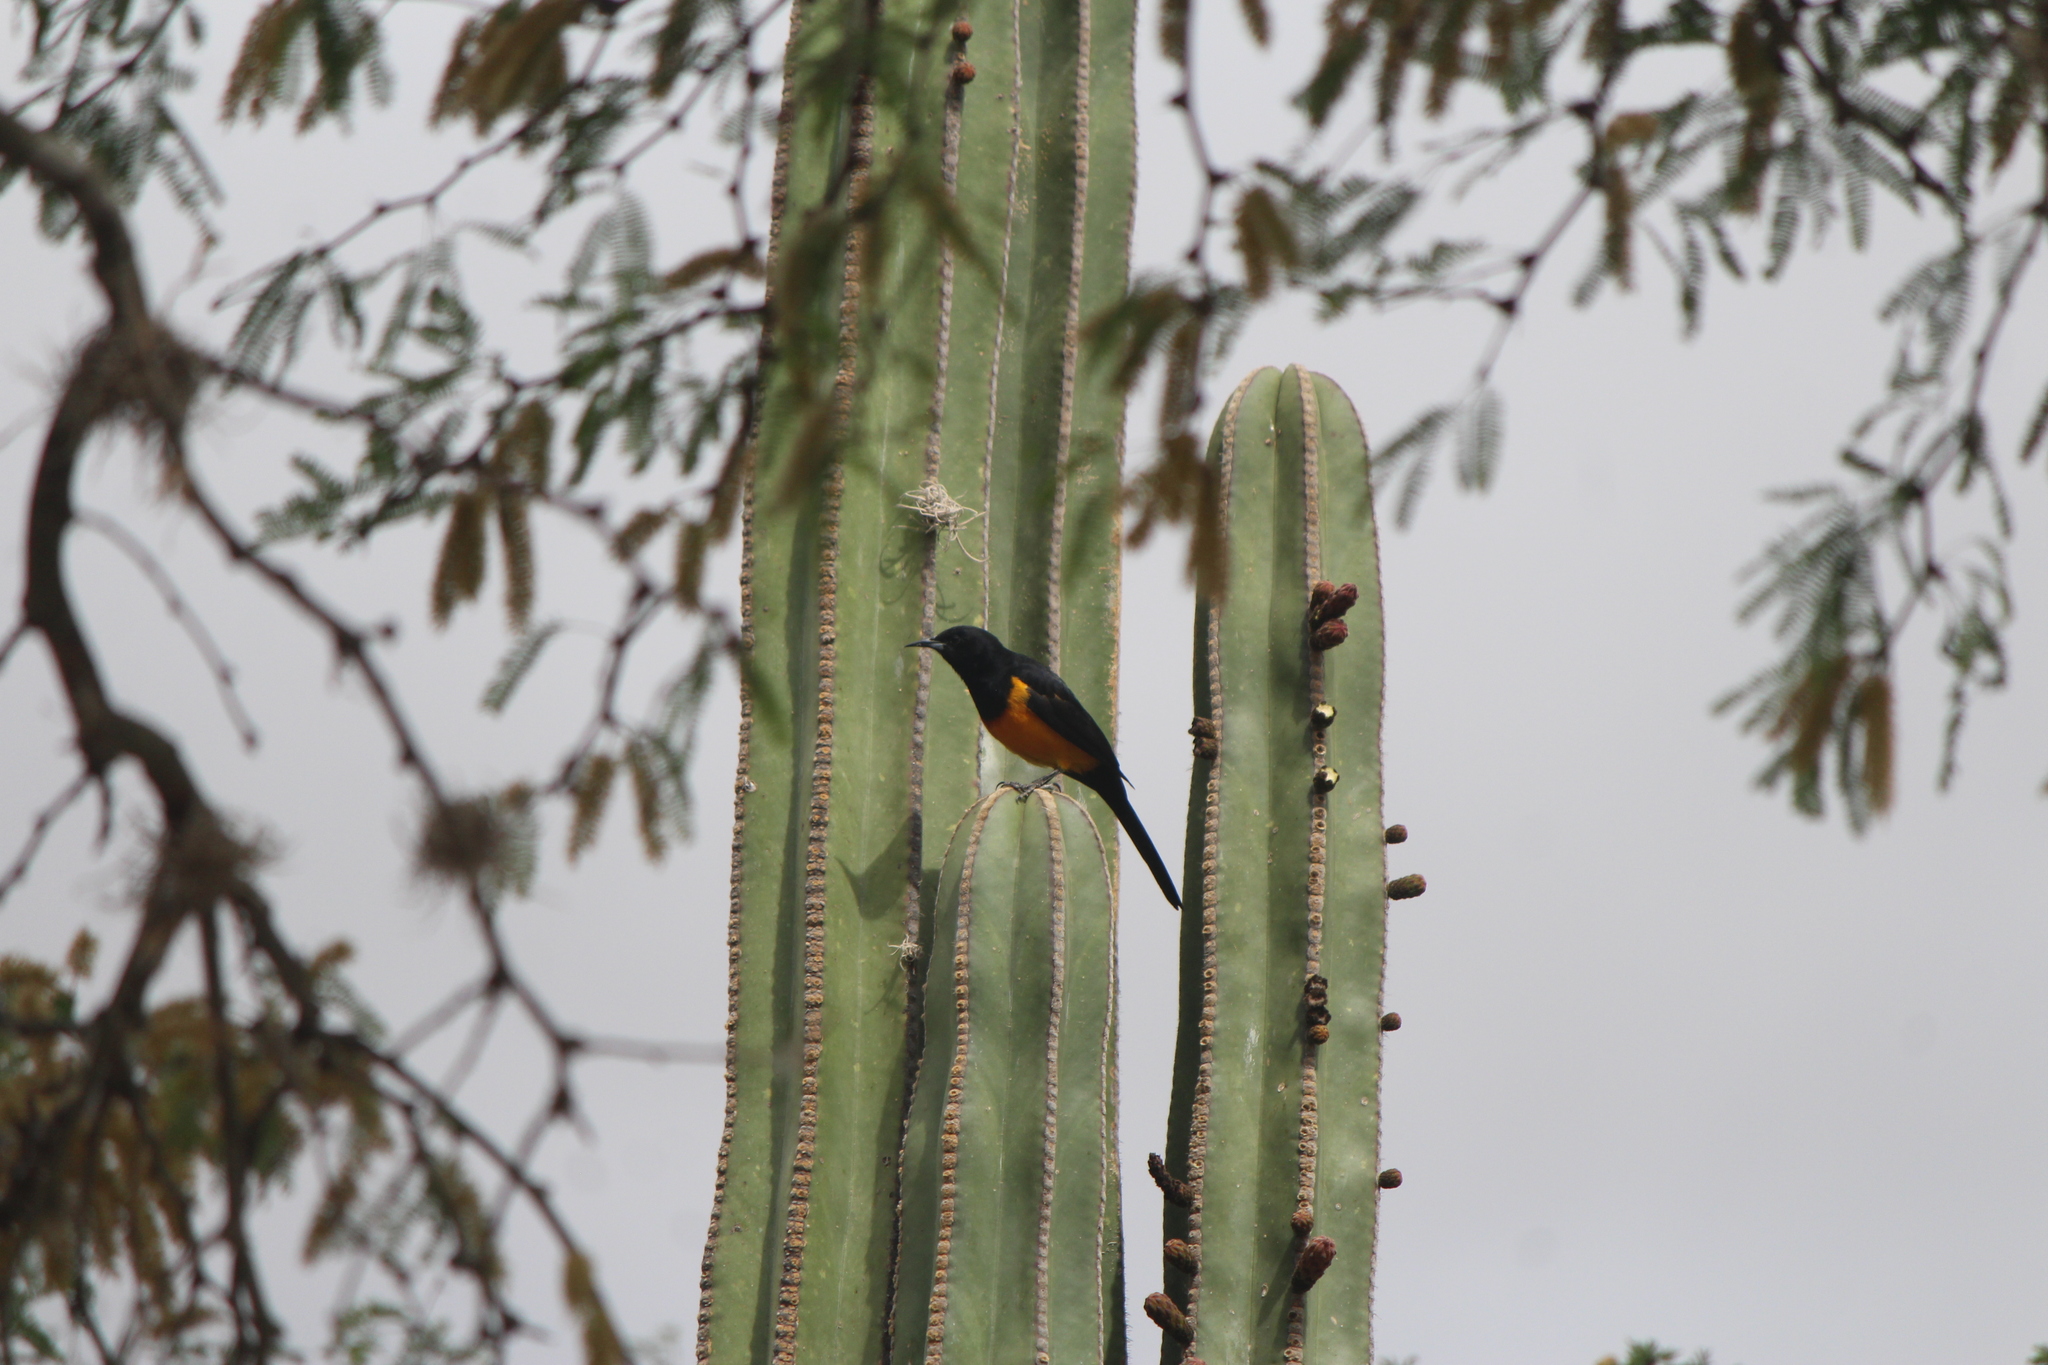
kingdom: Animalia
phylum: Chordata
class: Aves
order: Passeriformes
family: Icteridae
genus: Icterus
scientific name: Icterus wagleri
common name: Black-vented oriole
